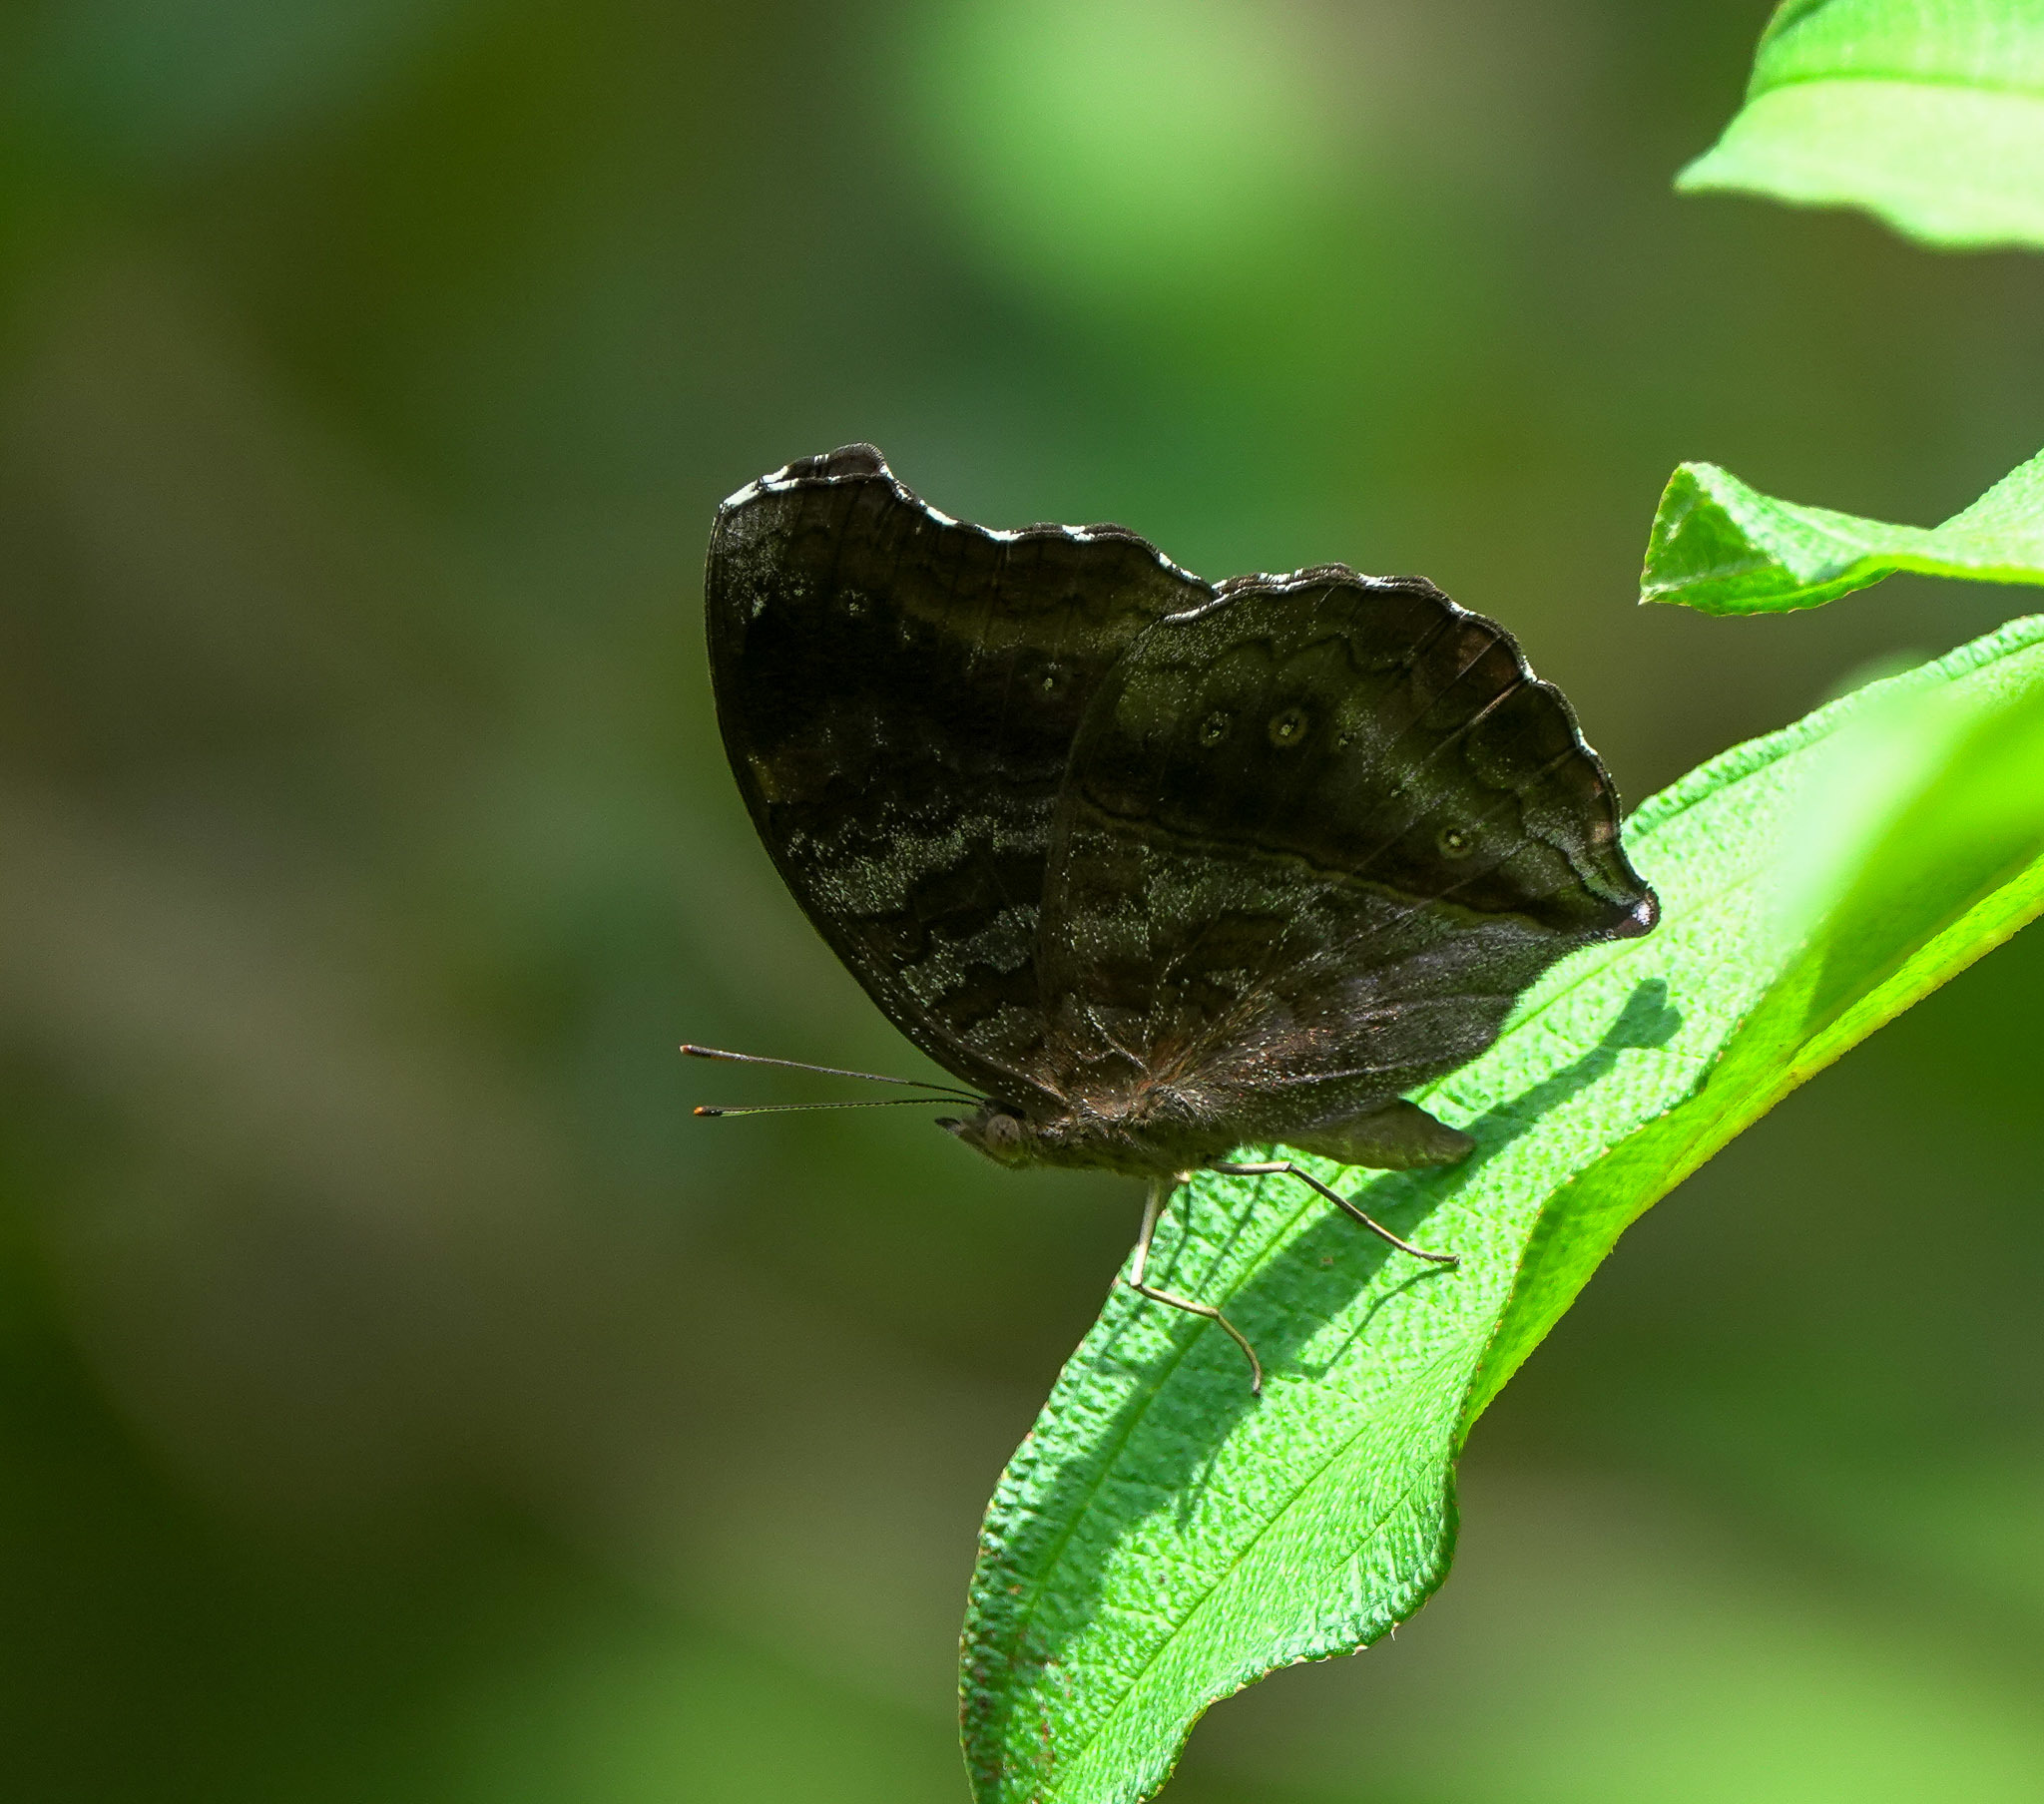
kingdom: Animalia
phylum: Arthropoda
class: Insecta
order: Lepidoptera
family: Nymphalidae
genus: Junonia
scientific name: Junonia iphita
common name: Chocolate pansy
